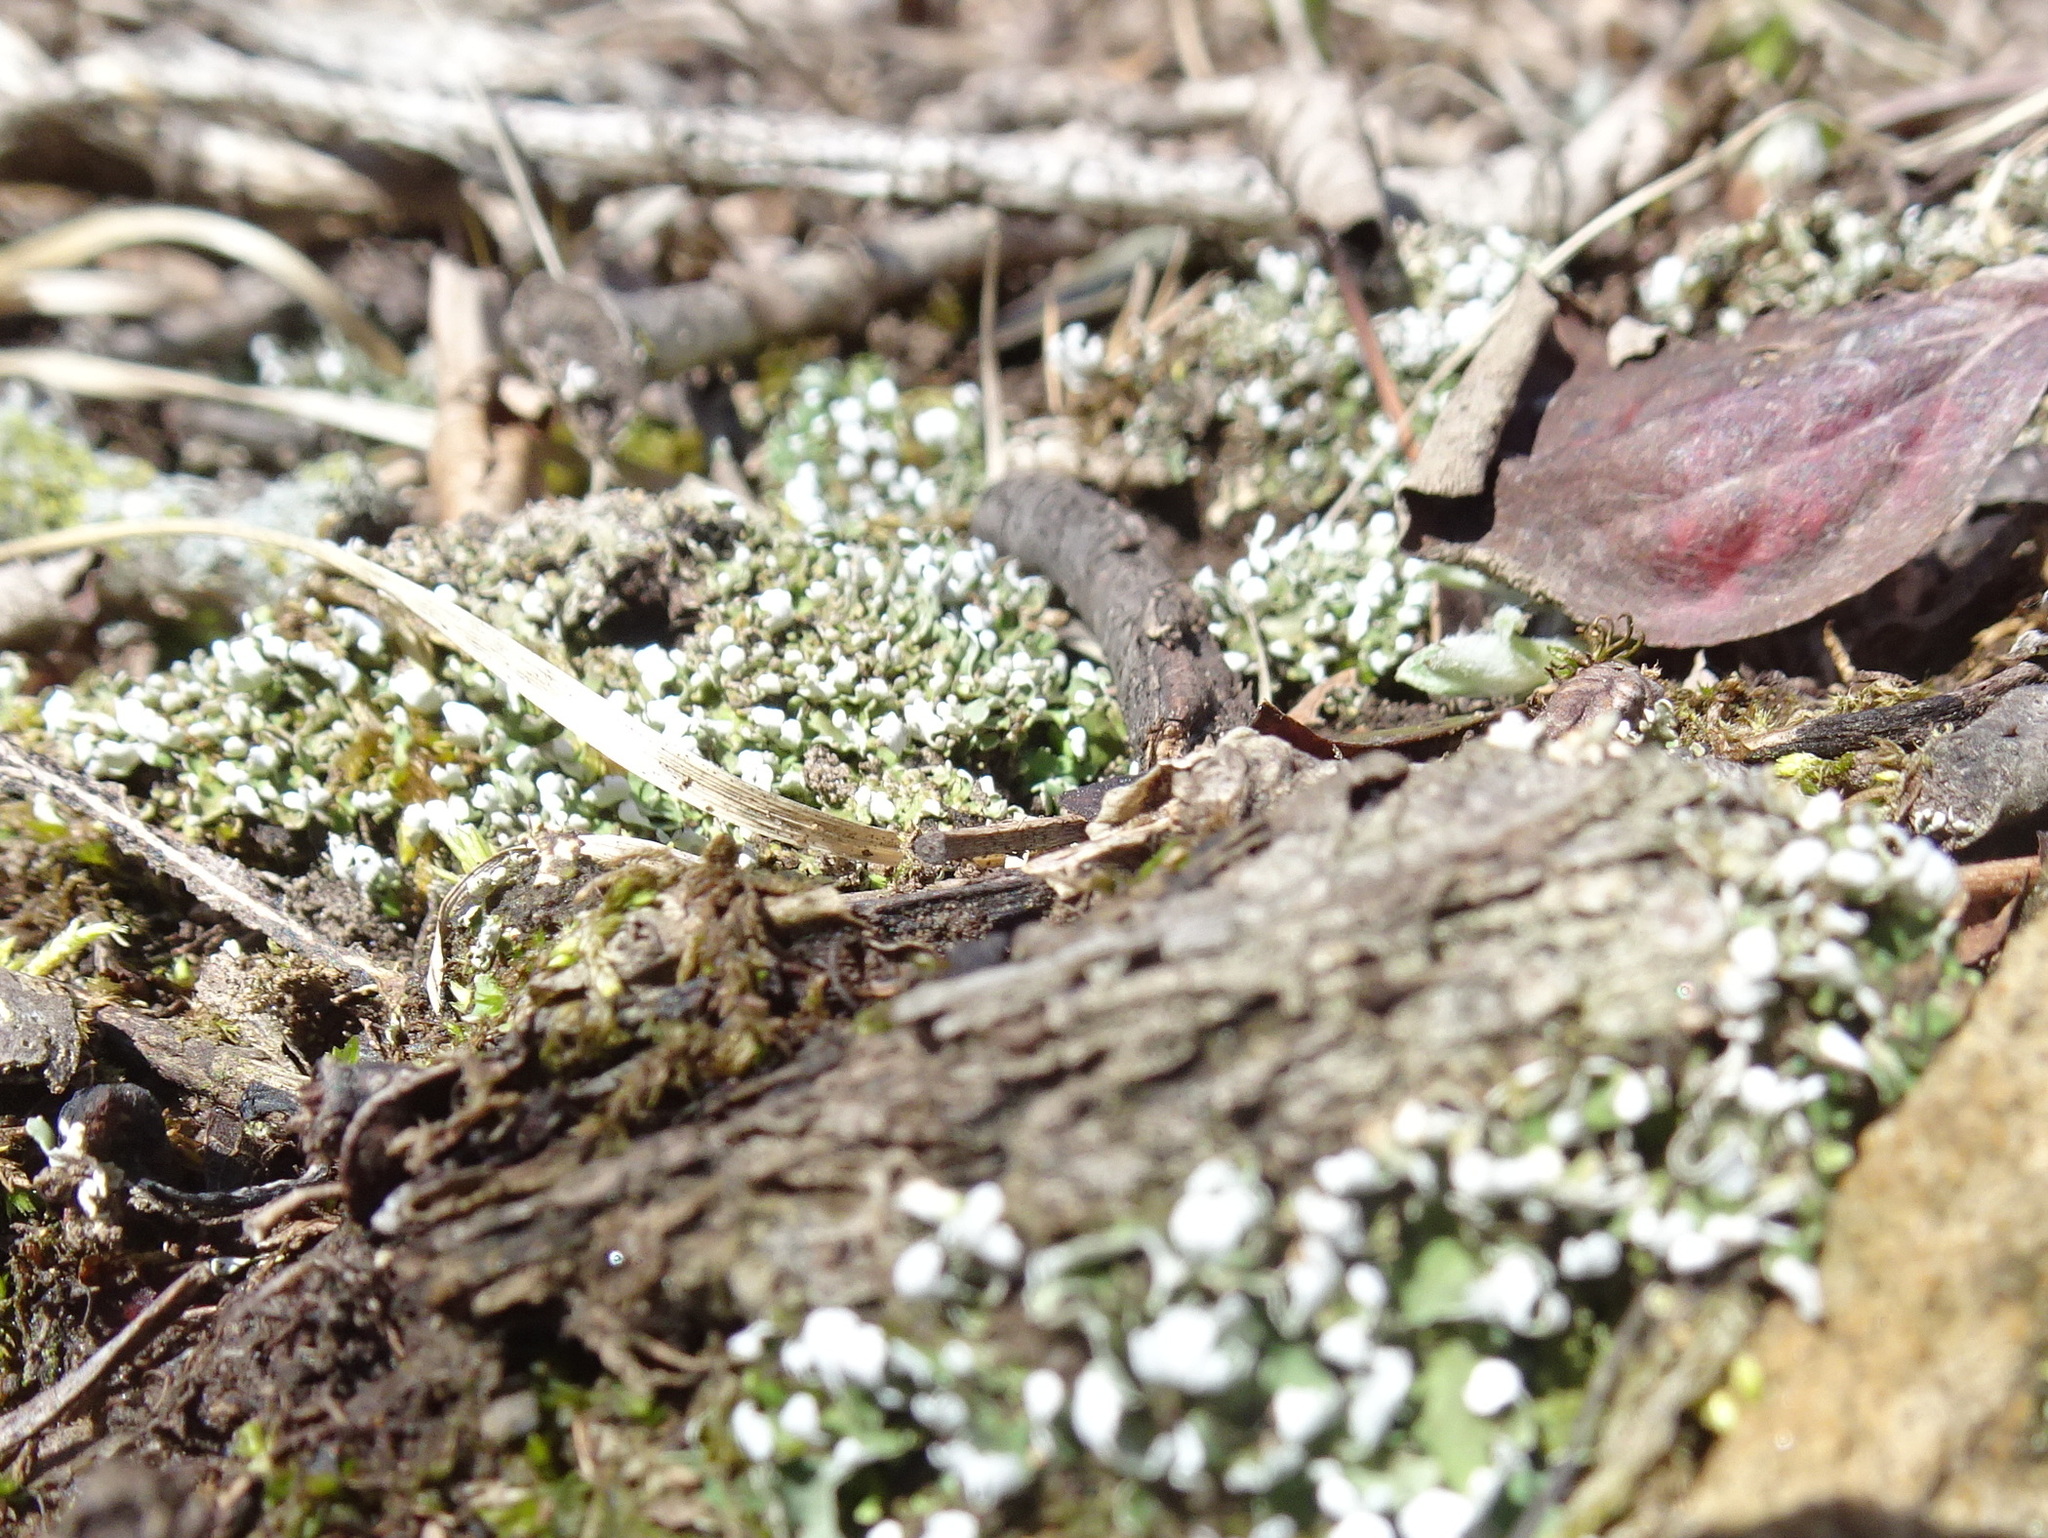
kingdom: Fungi
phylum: Ascomycota
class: Lecanoromycetes
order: Lecanorales
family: Cladoniaceae
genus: Cladonia
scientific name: Cladonia apodocarpa
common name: Stalkless cladonia
